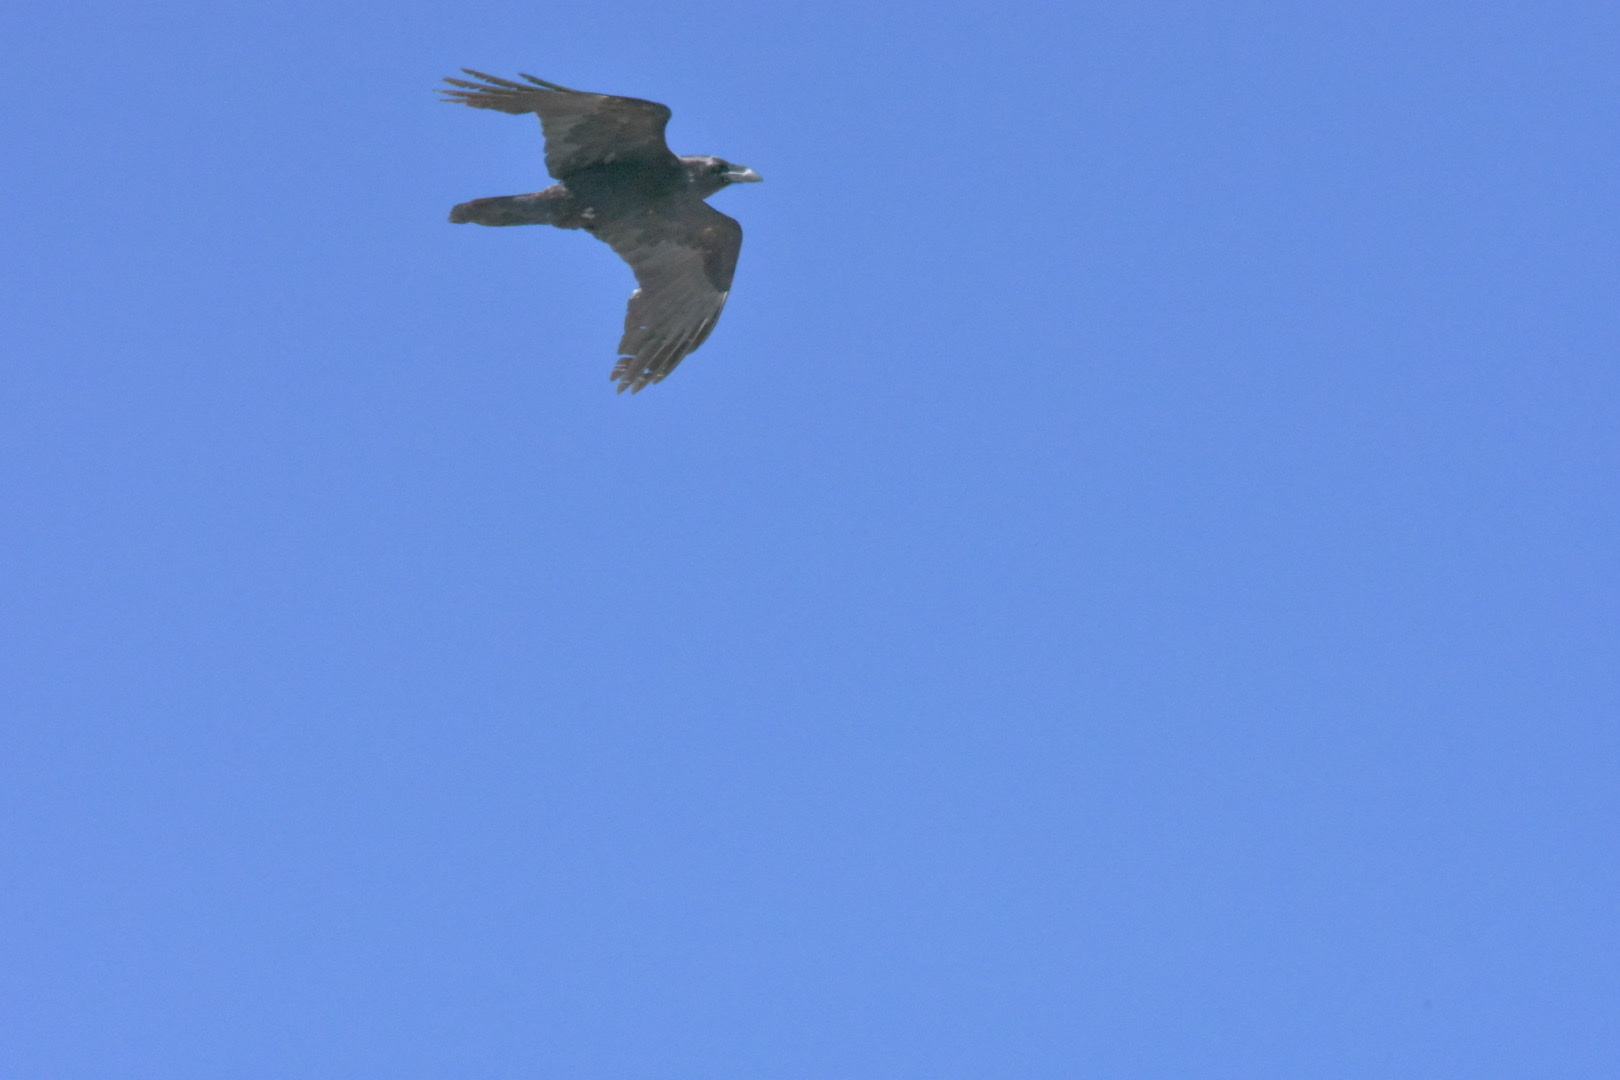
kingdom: Animalia
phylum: Chordata
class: Aves
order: Passeriformes
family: Corvidae
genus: Corvus
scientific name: Corvus corax
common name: Common raven
